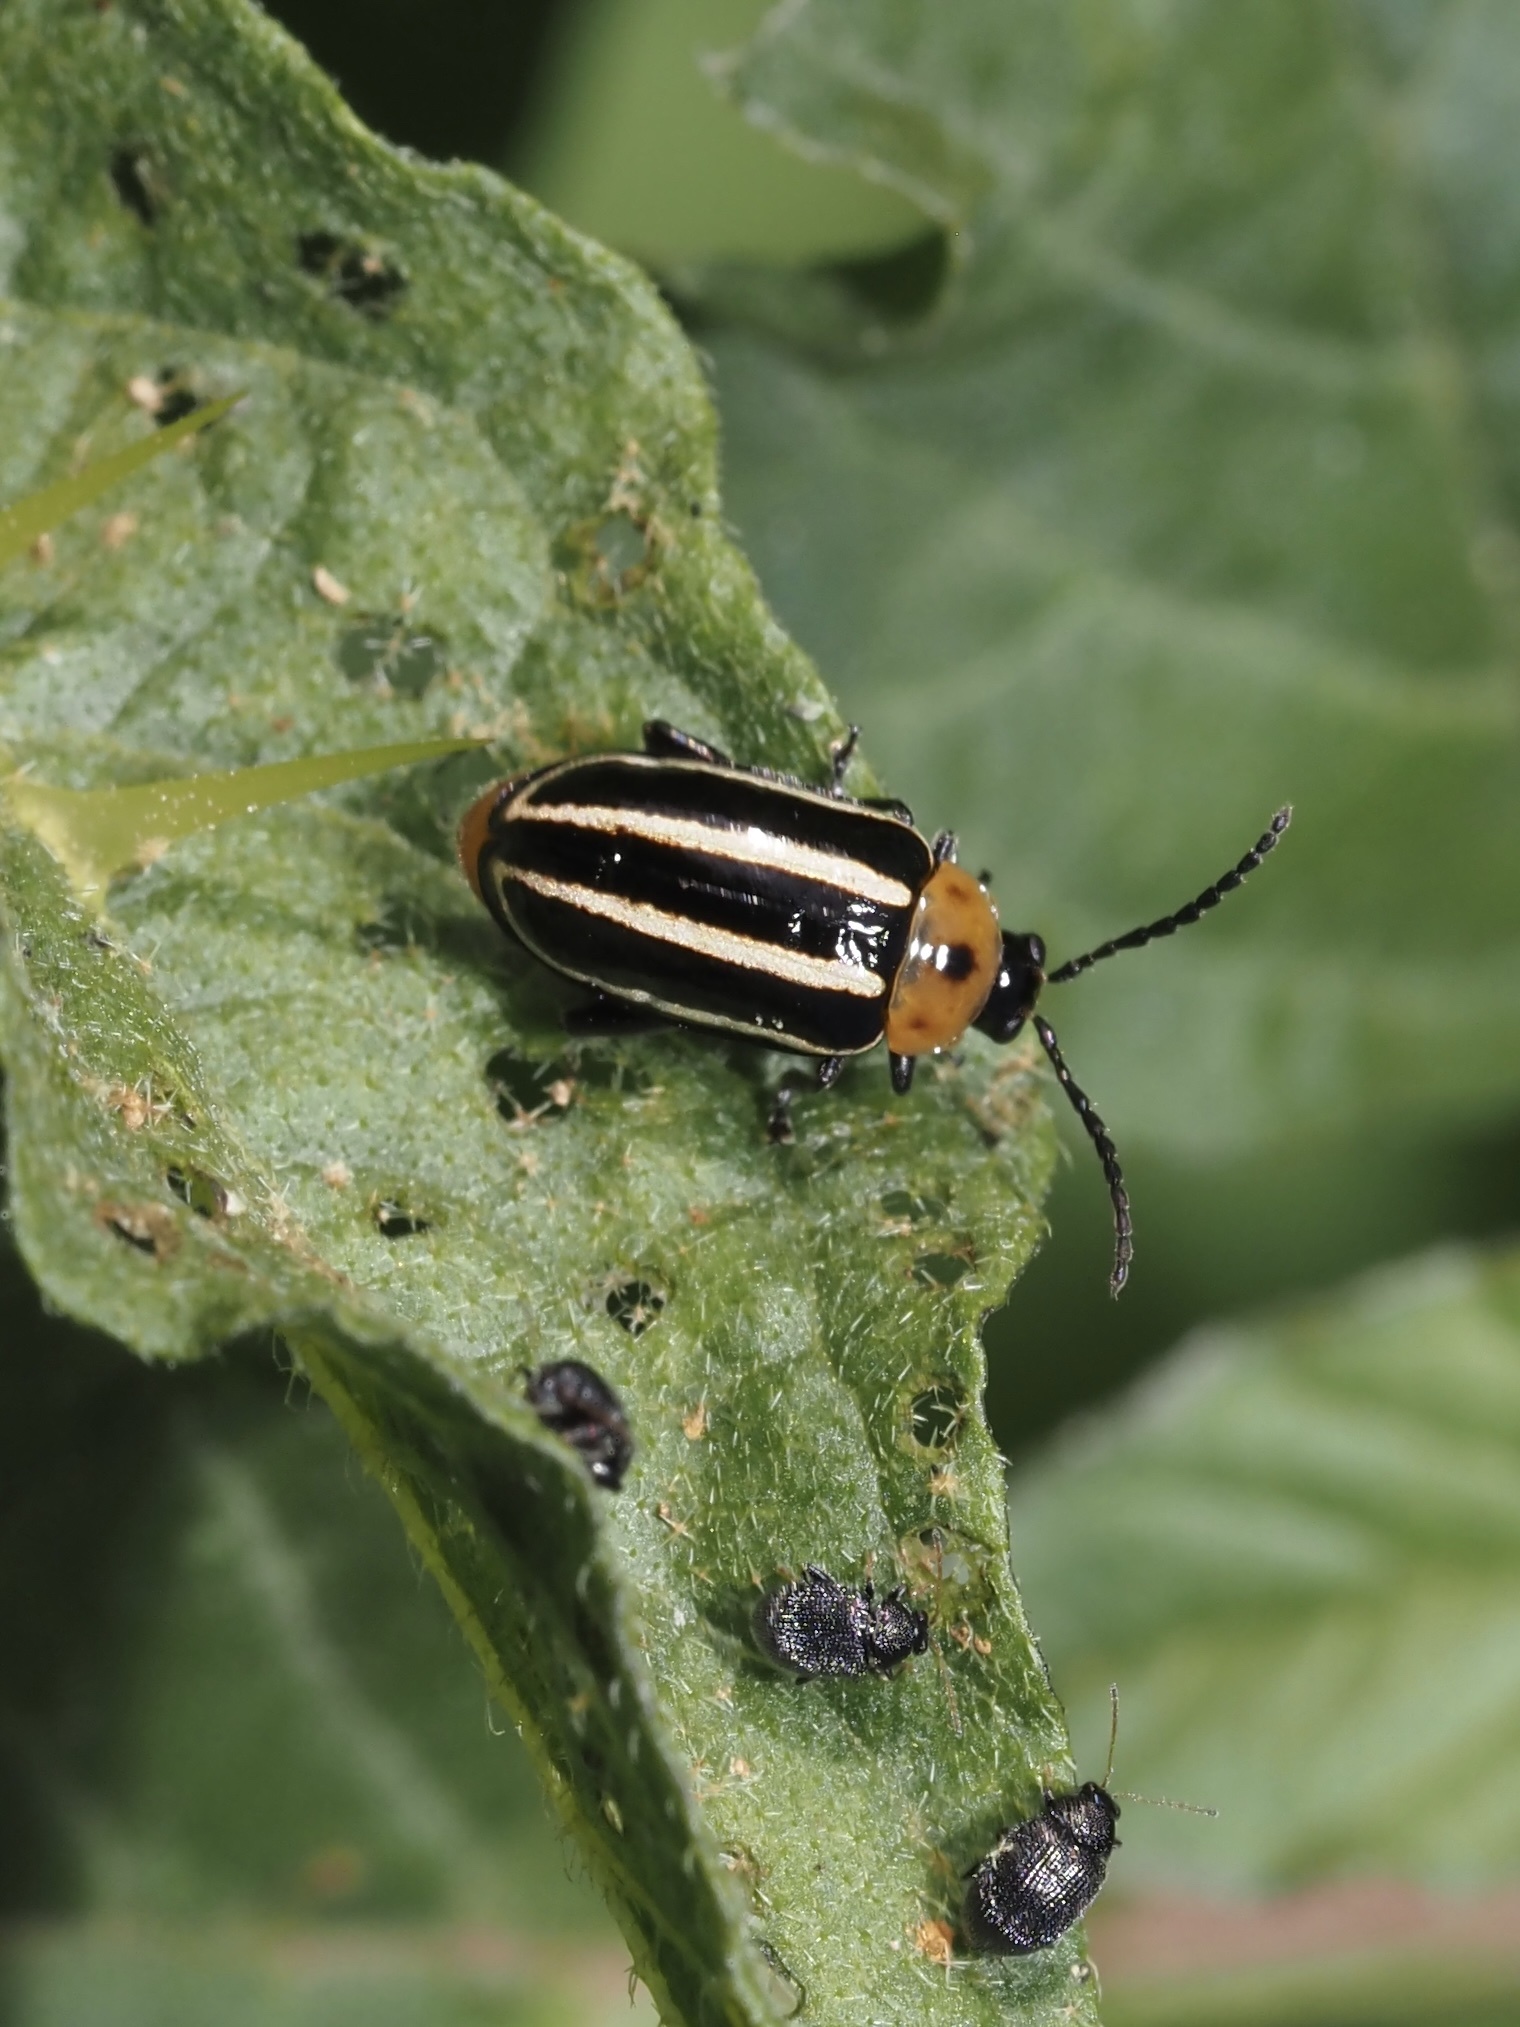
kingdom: Animalia
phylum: Arthropoda
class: Insecta
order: Coleoptera
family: Chrysomelidae
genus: Disonycha
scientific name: Disonycha glabrata
